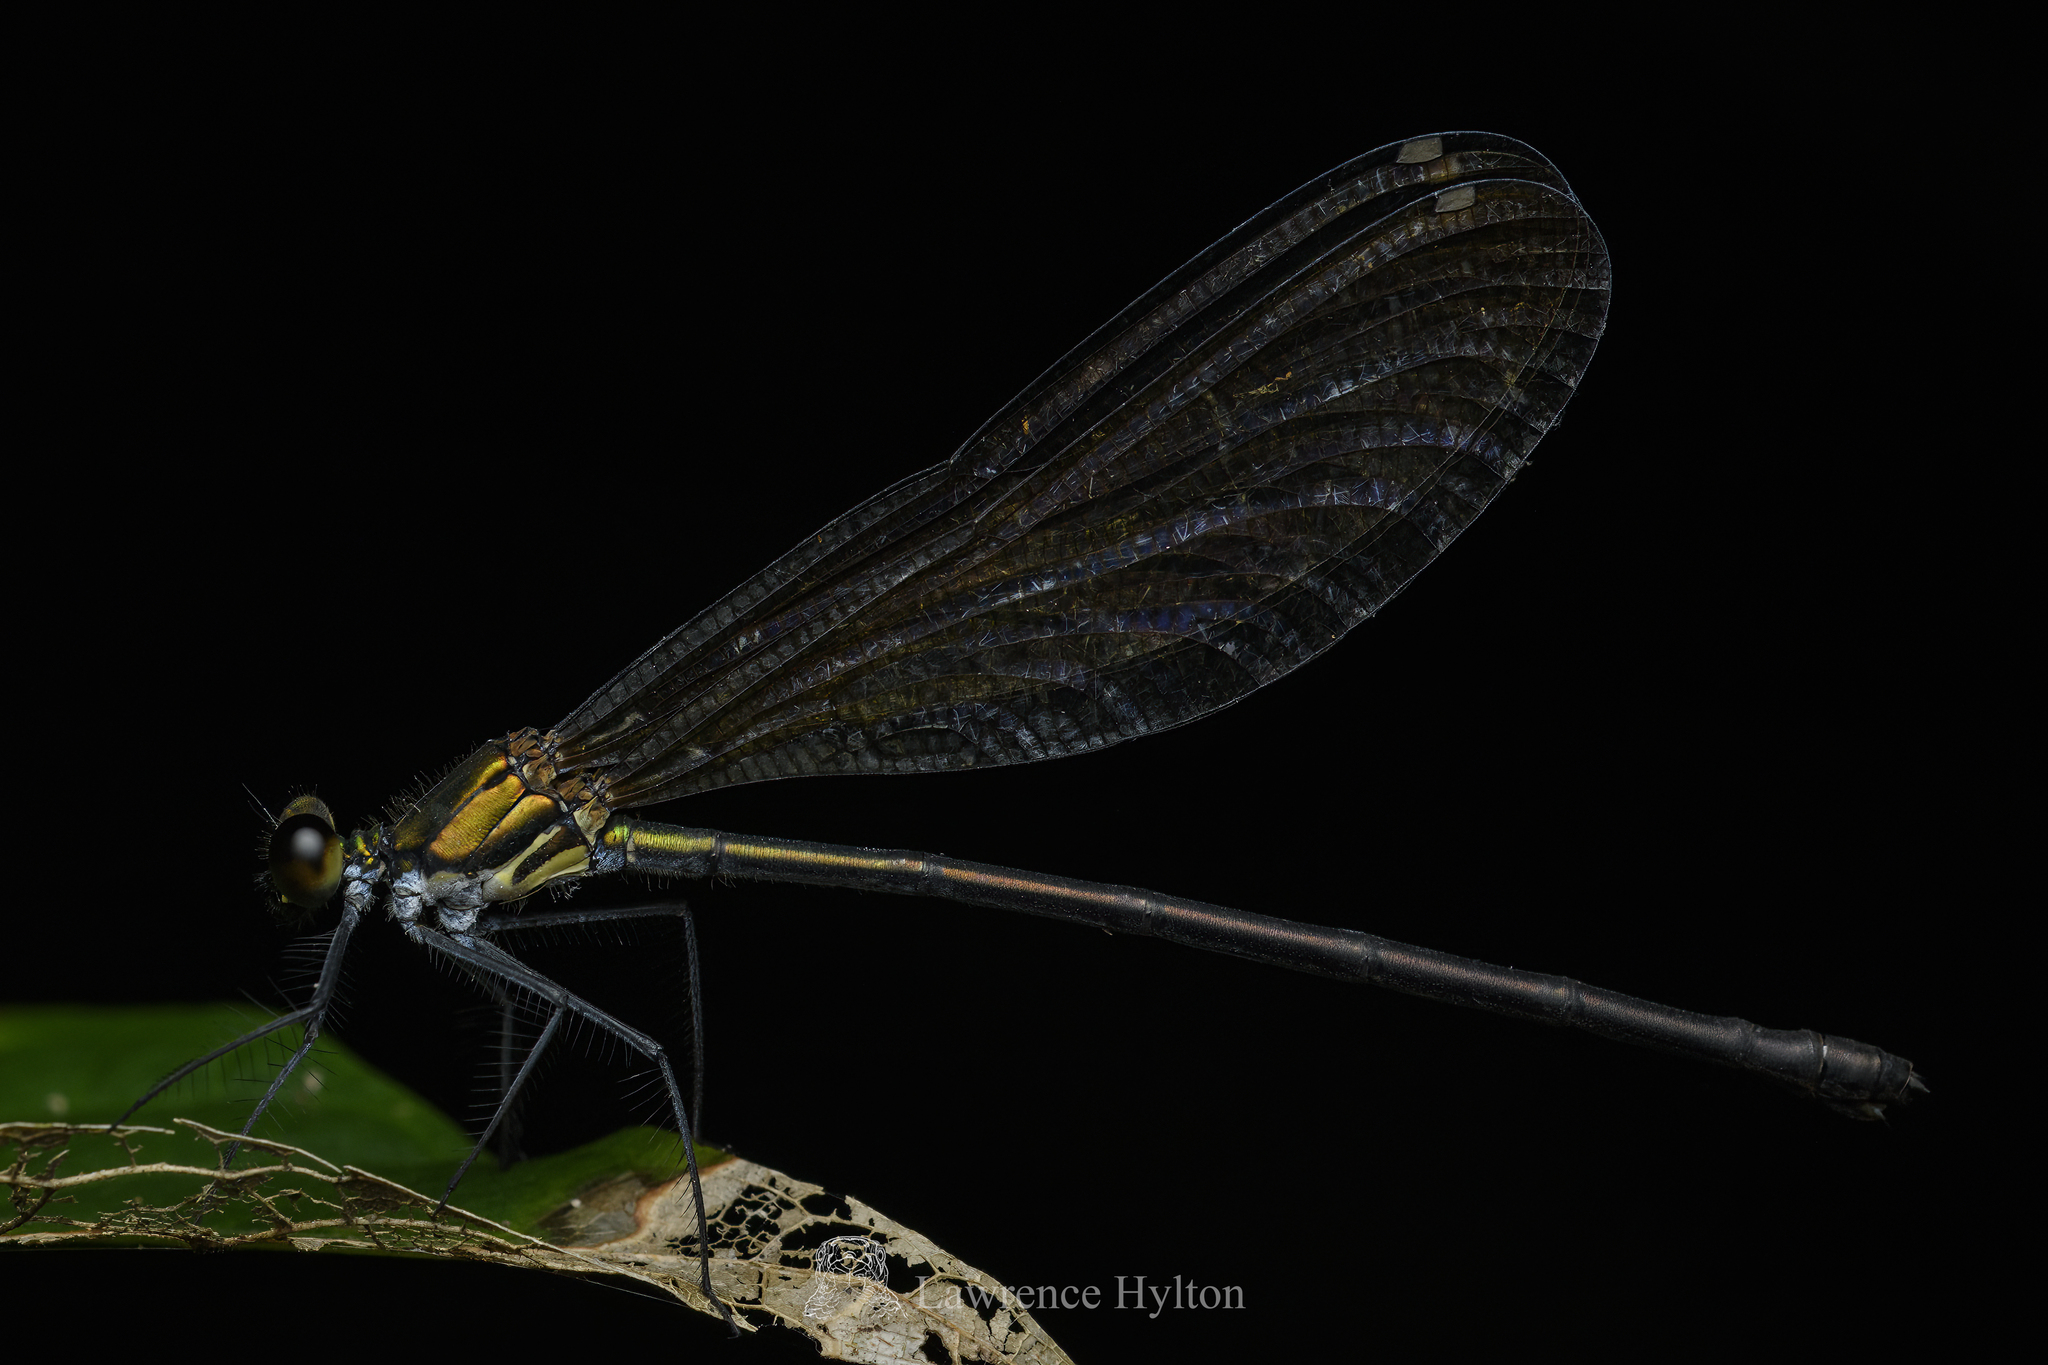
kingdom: Animalia
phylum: Arthropoda
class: Insecta
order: Odonata
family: Calopterygidae
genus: Mnais
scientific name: Mnais mneme
